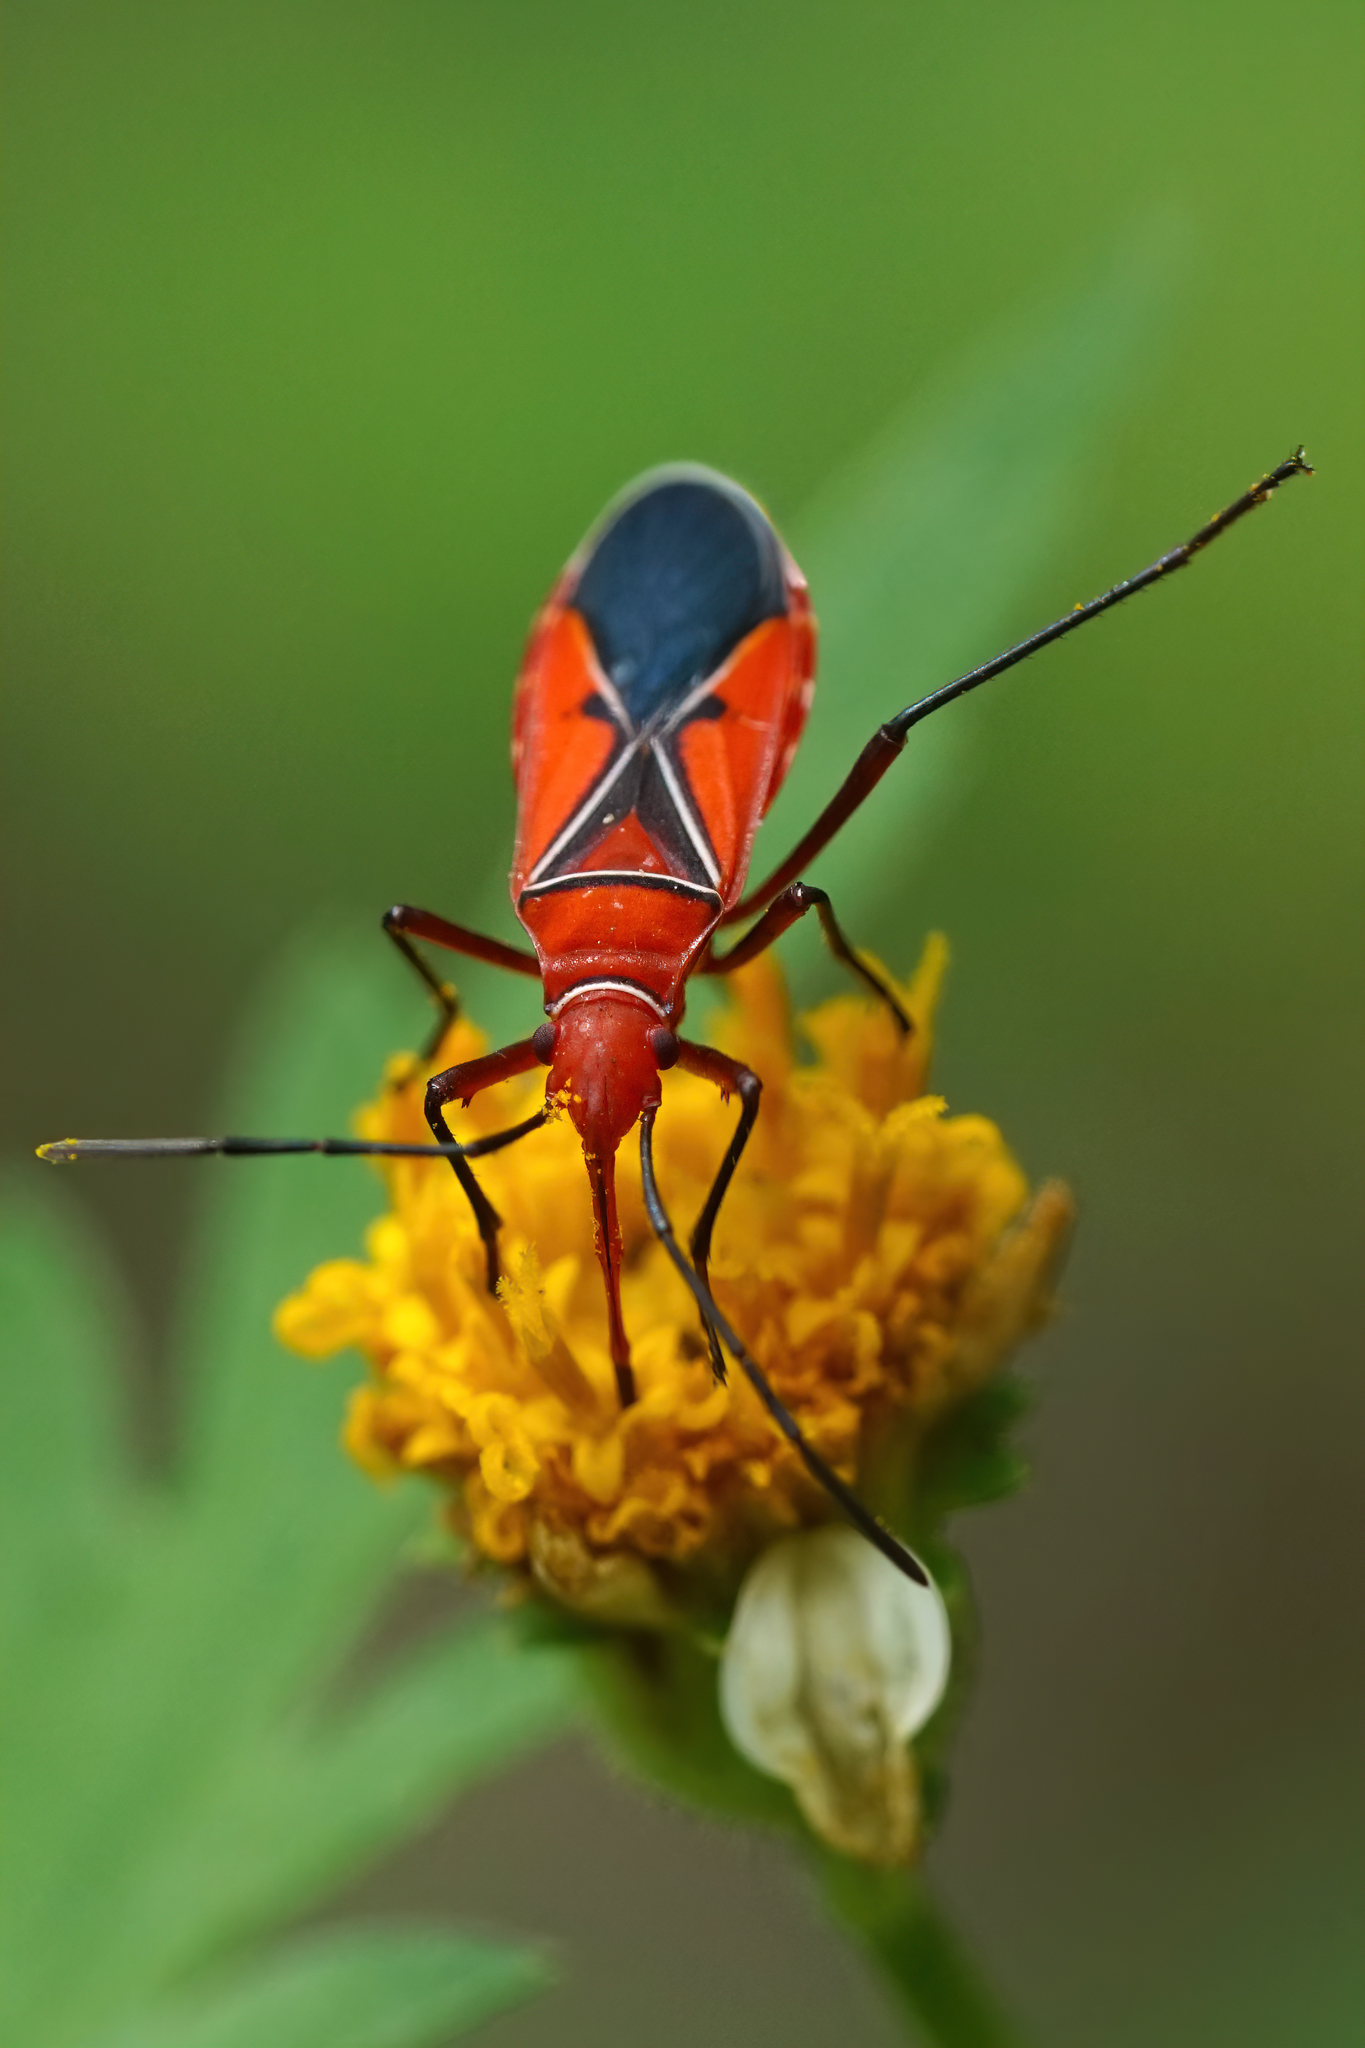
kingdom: Animalia
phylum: Arthropoda
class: Insecta
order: Hemiptera
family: Pyrrhocoridae
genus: Dysdercus
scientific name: Dysdercus suturellus
